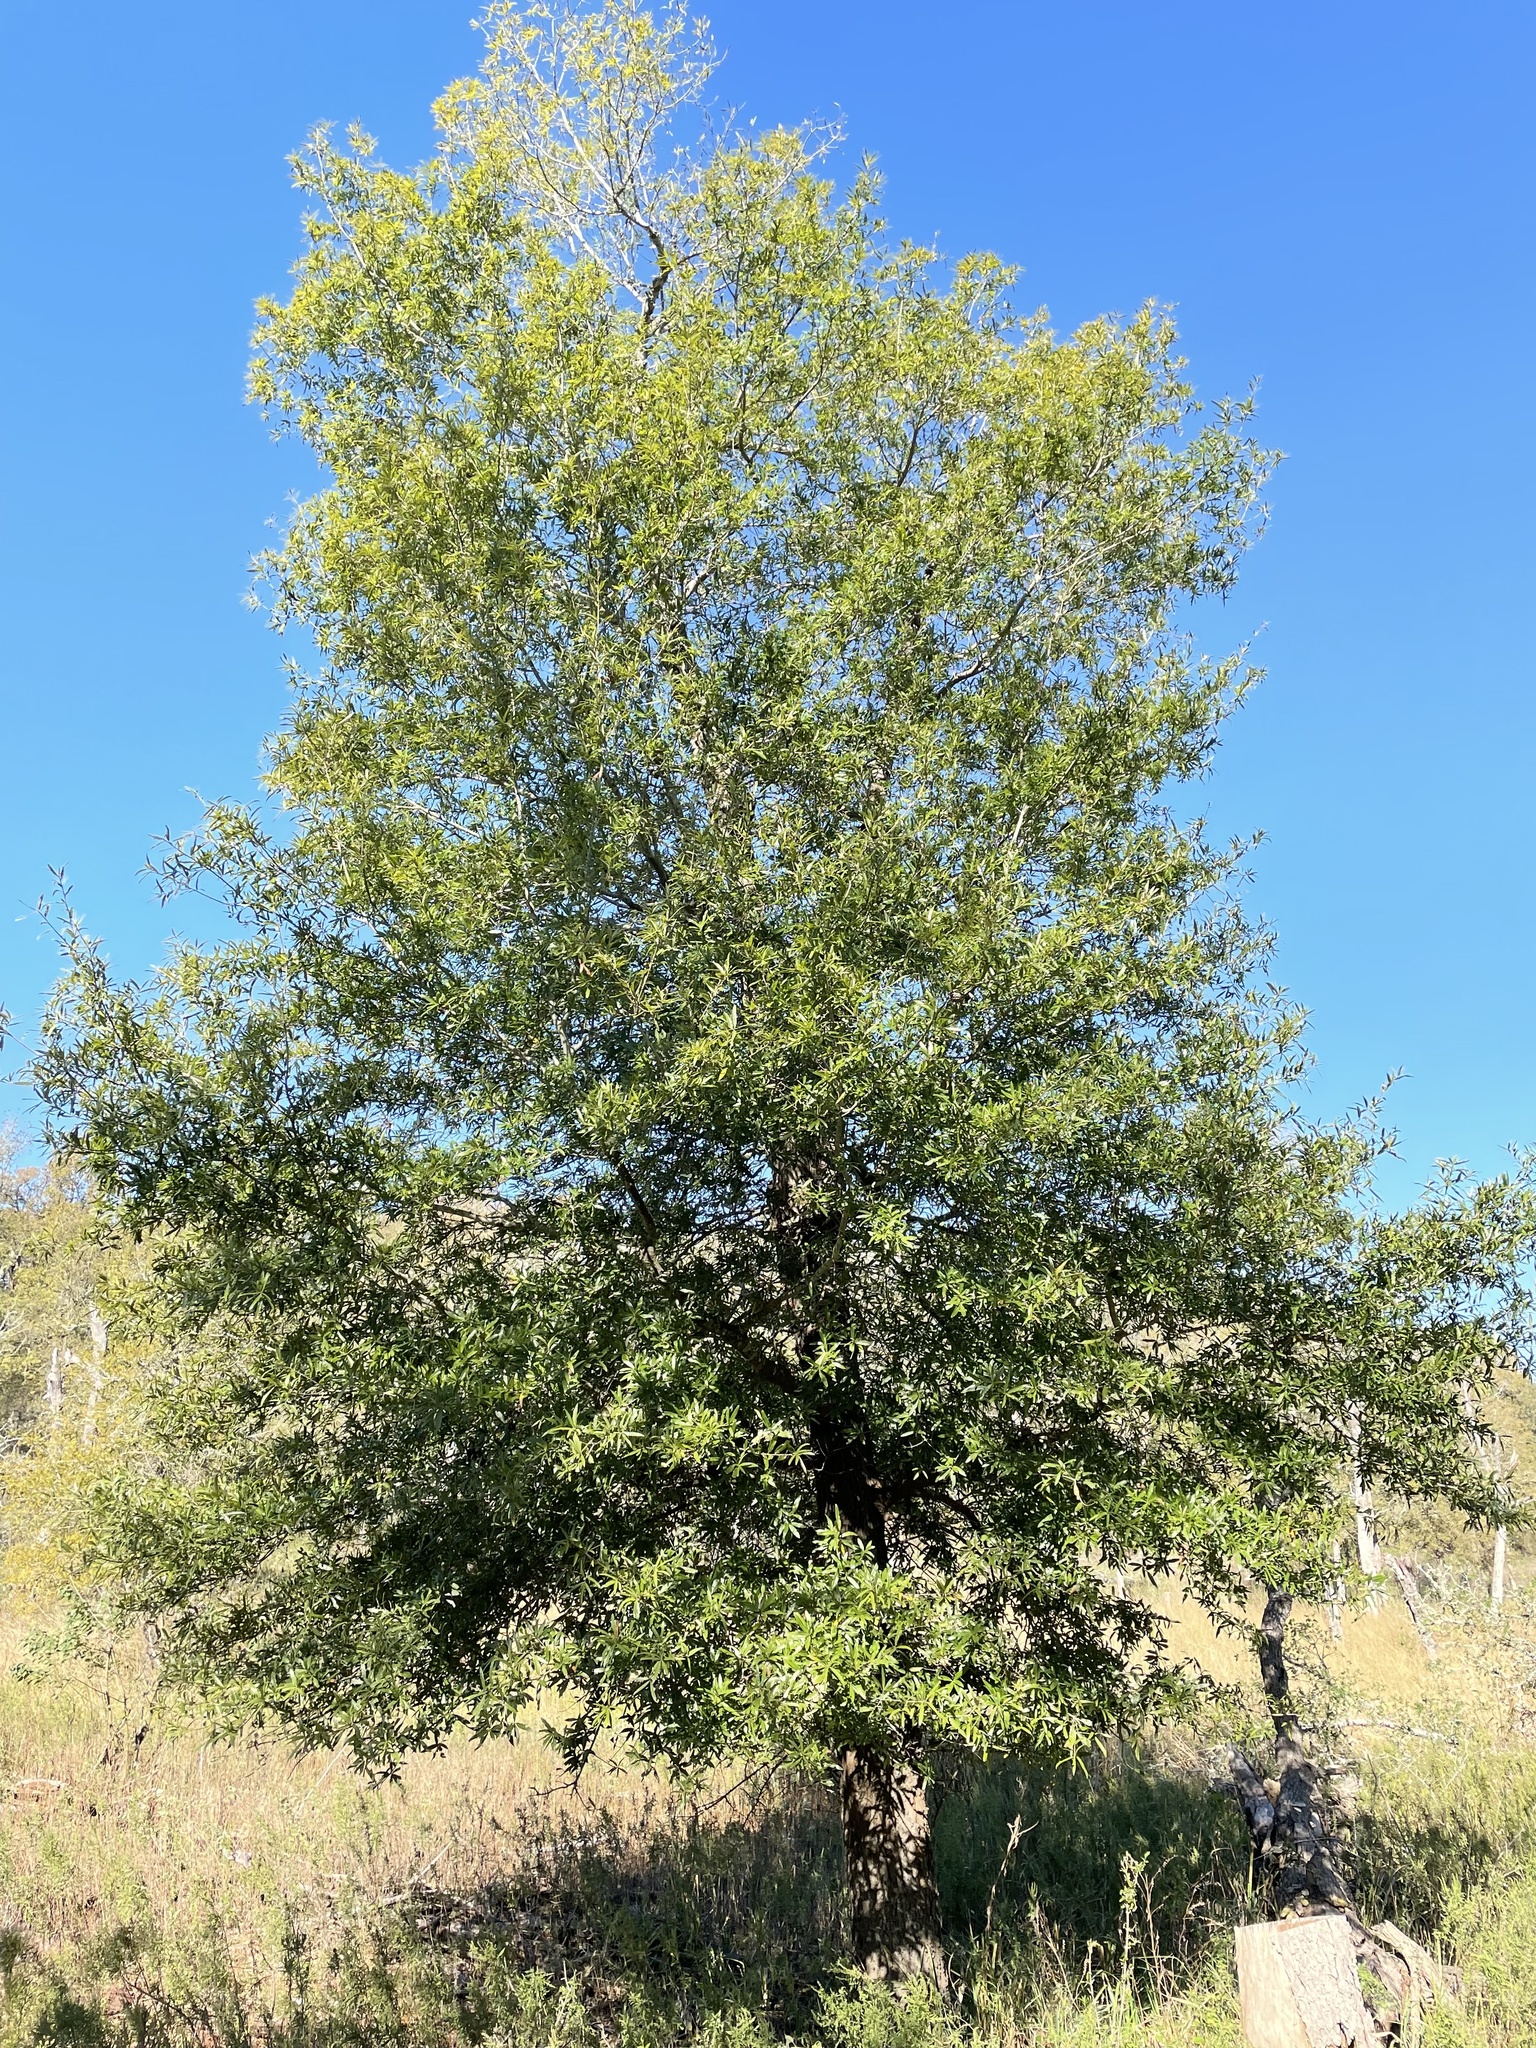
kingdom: Plantae
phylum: Tracheophyta
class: Magnoliopsida
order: Fagales
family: Fagaceae
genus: Quercus
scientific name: Quercus phellos
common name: Willow oak
